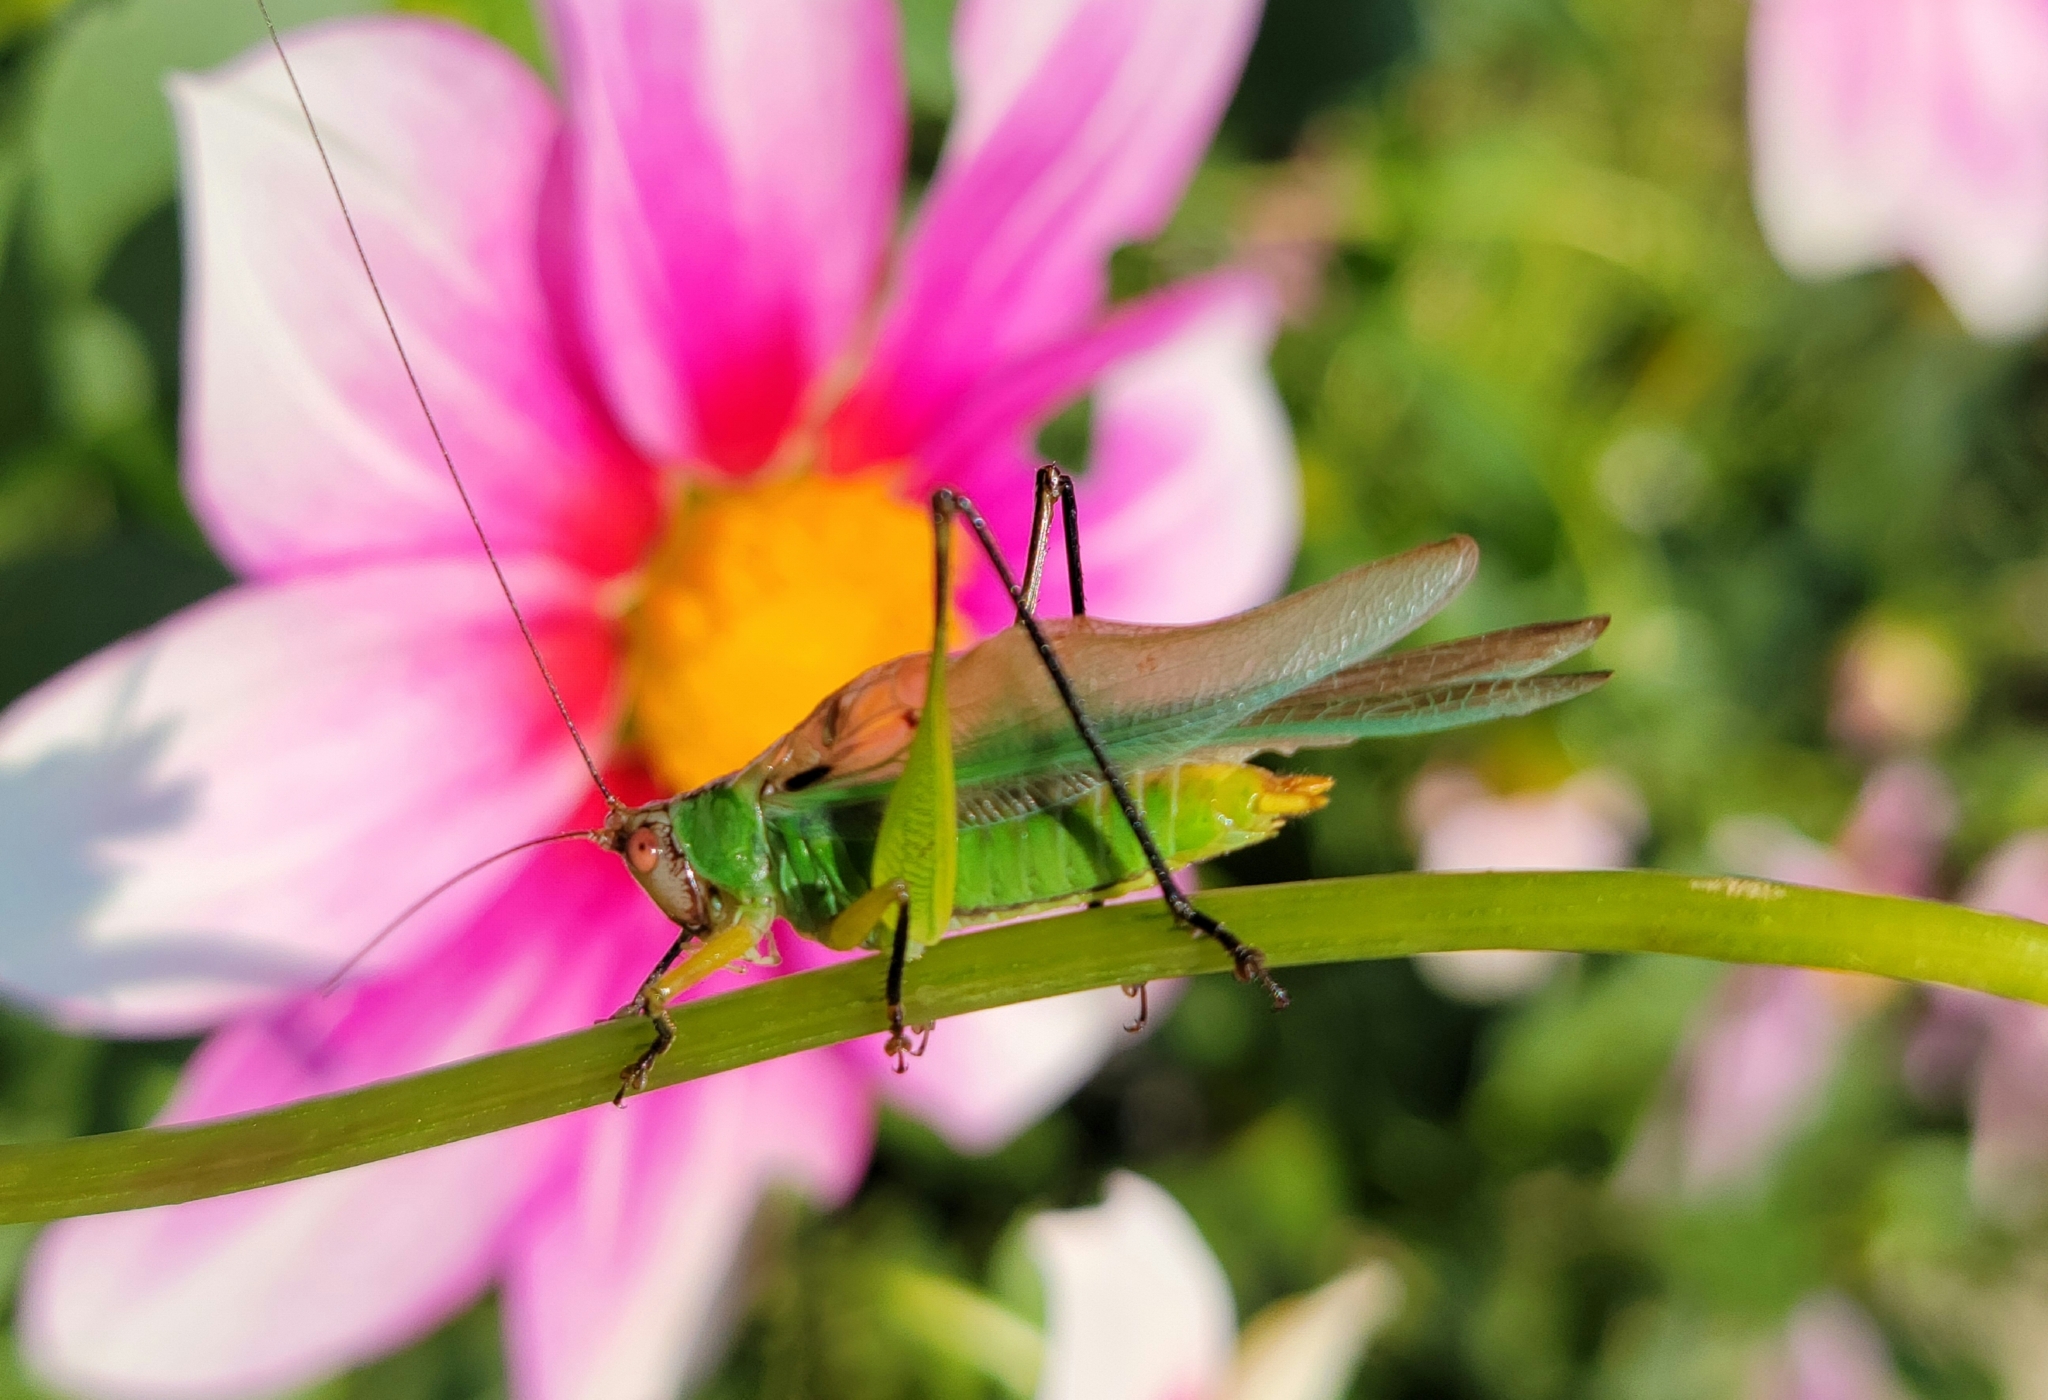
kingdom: Animalia
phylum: Arthropoda
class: Insecta
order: Orthoptera
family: Tettigoniidae
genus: Orchelimum
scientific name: Orchelimum nigripes
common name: Black-legged meadow katydid
